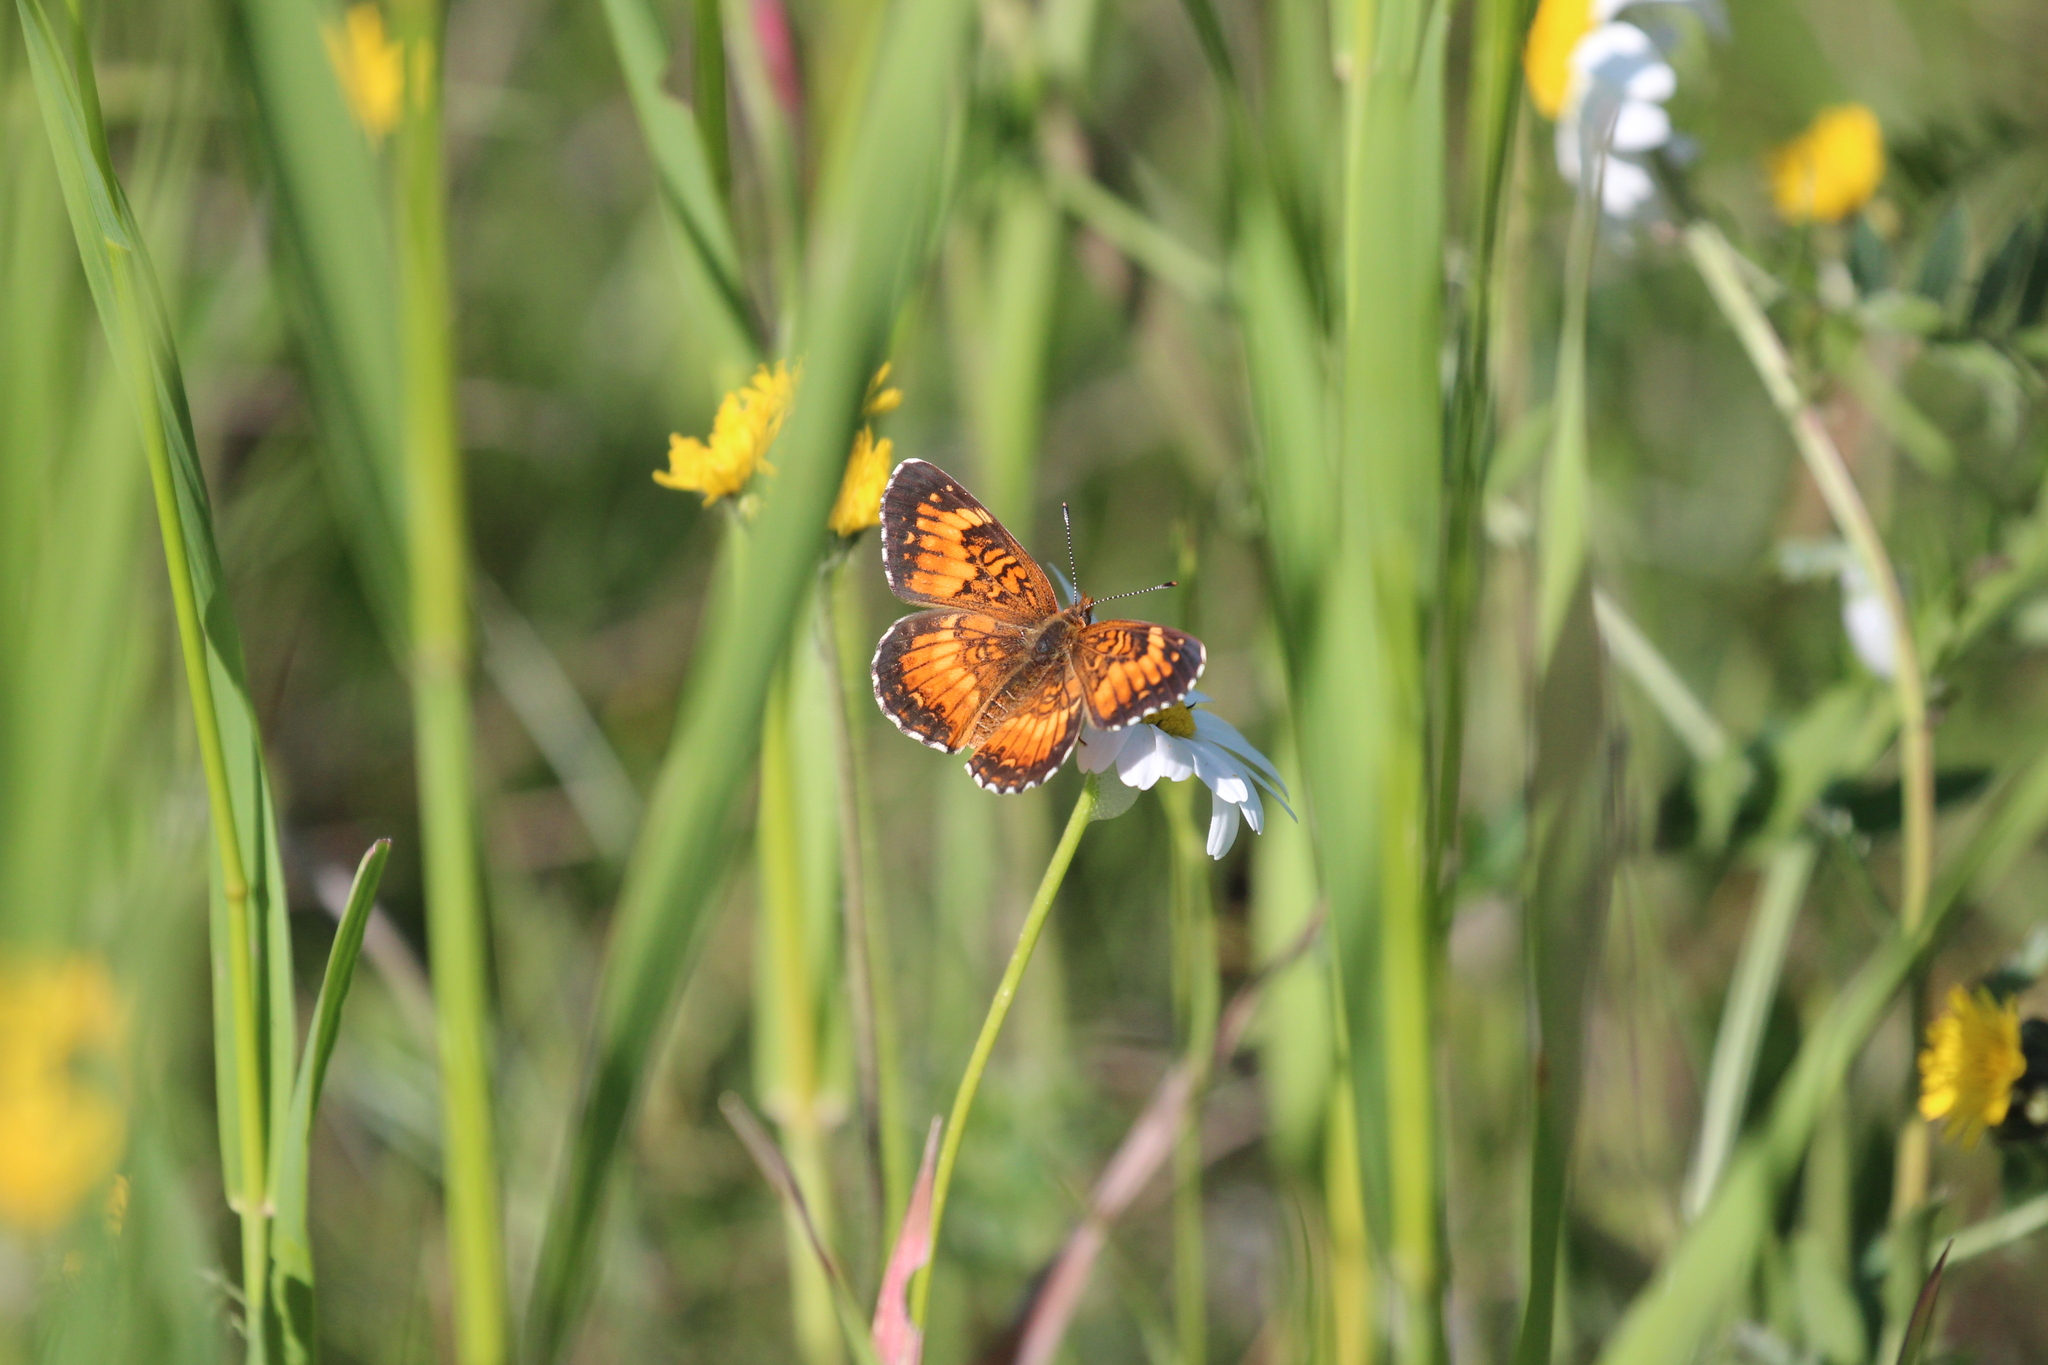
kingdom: Animalia
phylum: Arthropoda
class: Insecta
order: Lepidoptera
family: Nymphalidae
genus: Chlosyne
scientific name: Chlosyne harrisii
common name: Harris's checkerspot
